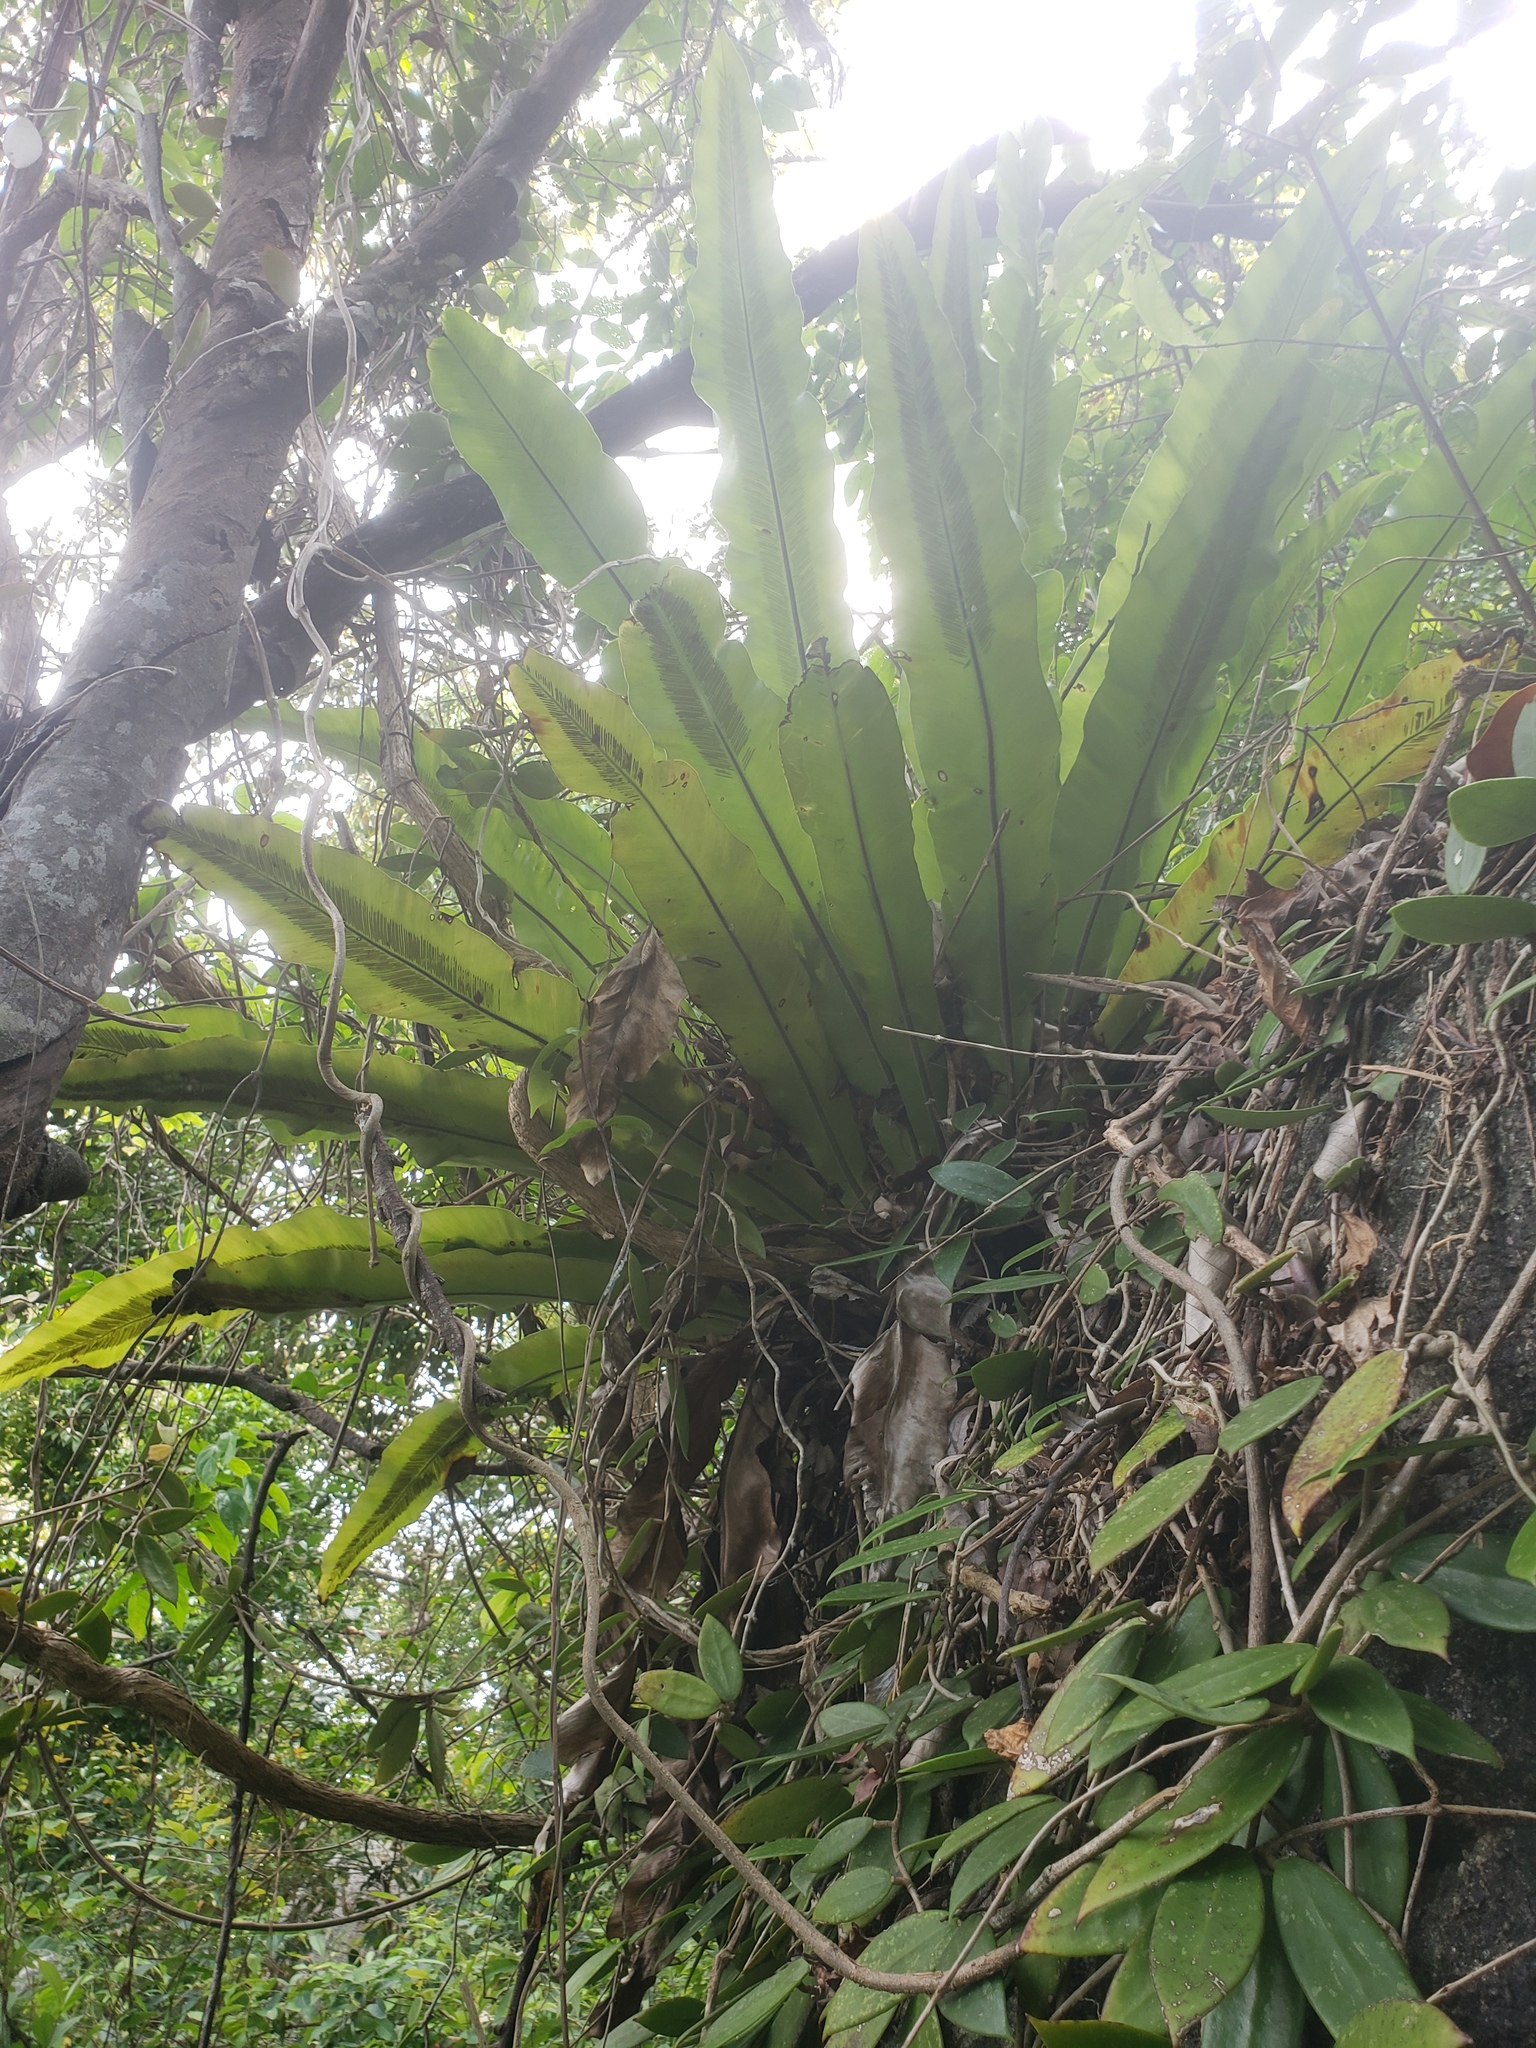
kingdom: Plantae
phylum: Tracheophyta
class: Polypodiopsida
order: Polypodiales
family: Aspleniaceae
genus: Asplenium
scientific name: Asplenium nidus
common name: Bird's-nest fern
